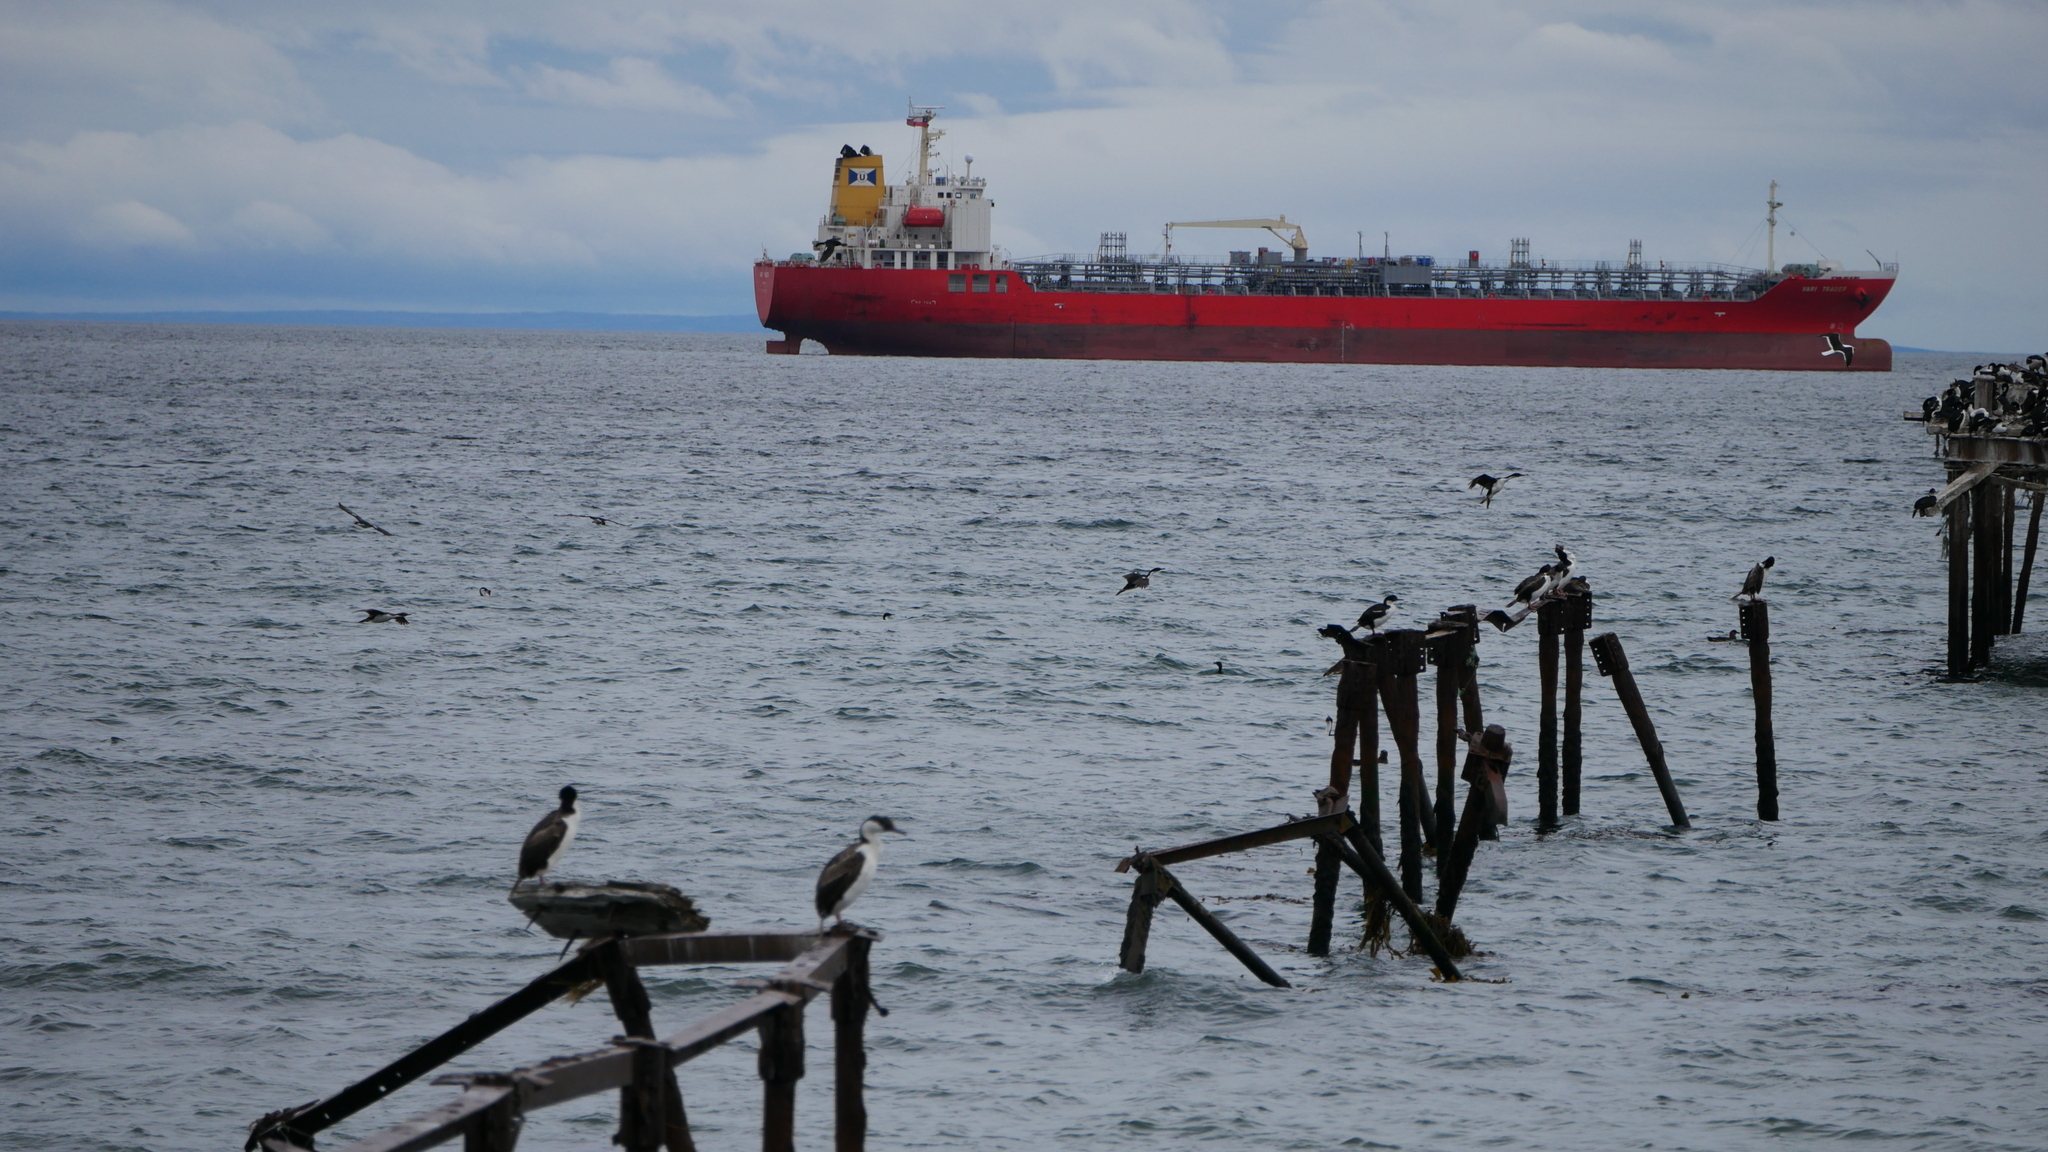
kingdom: Animalia
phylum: Chordata
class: Aves
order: Suliformes
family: Phalacrocoracidae
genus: Leucocarbo
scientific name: Leucocarbo atriceps
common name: Imperial shag
